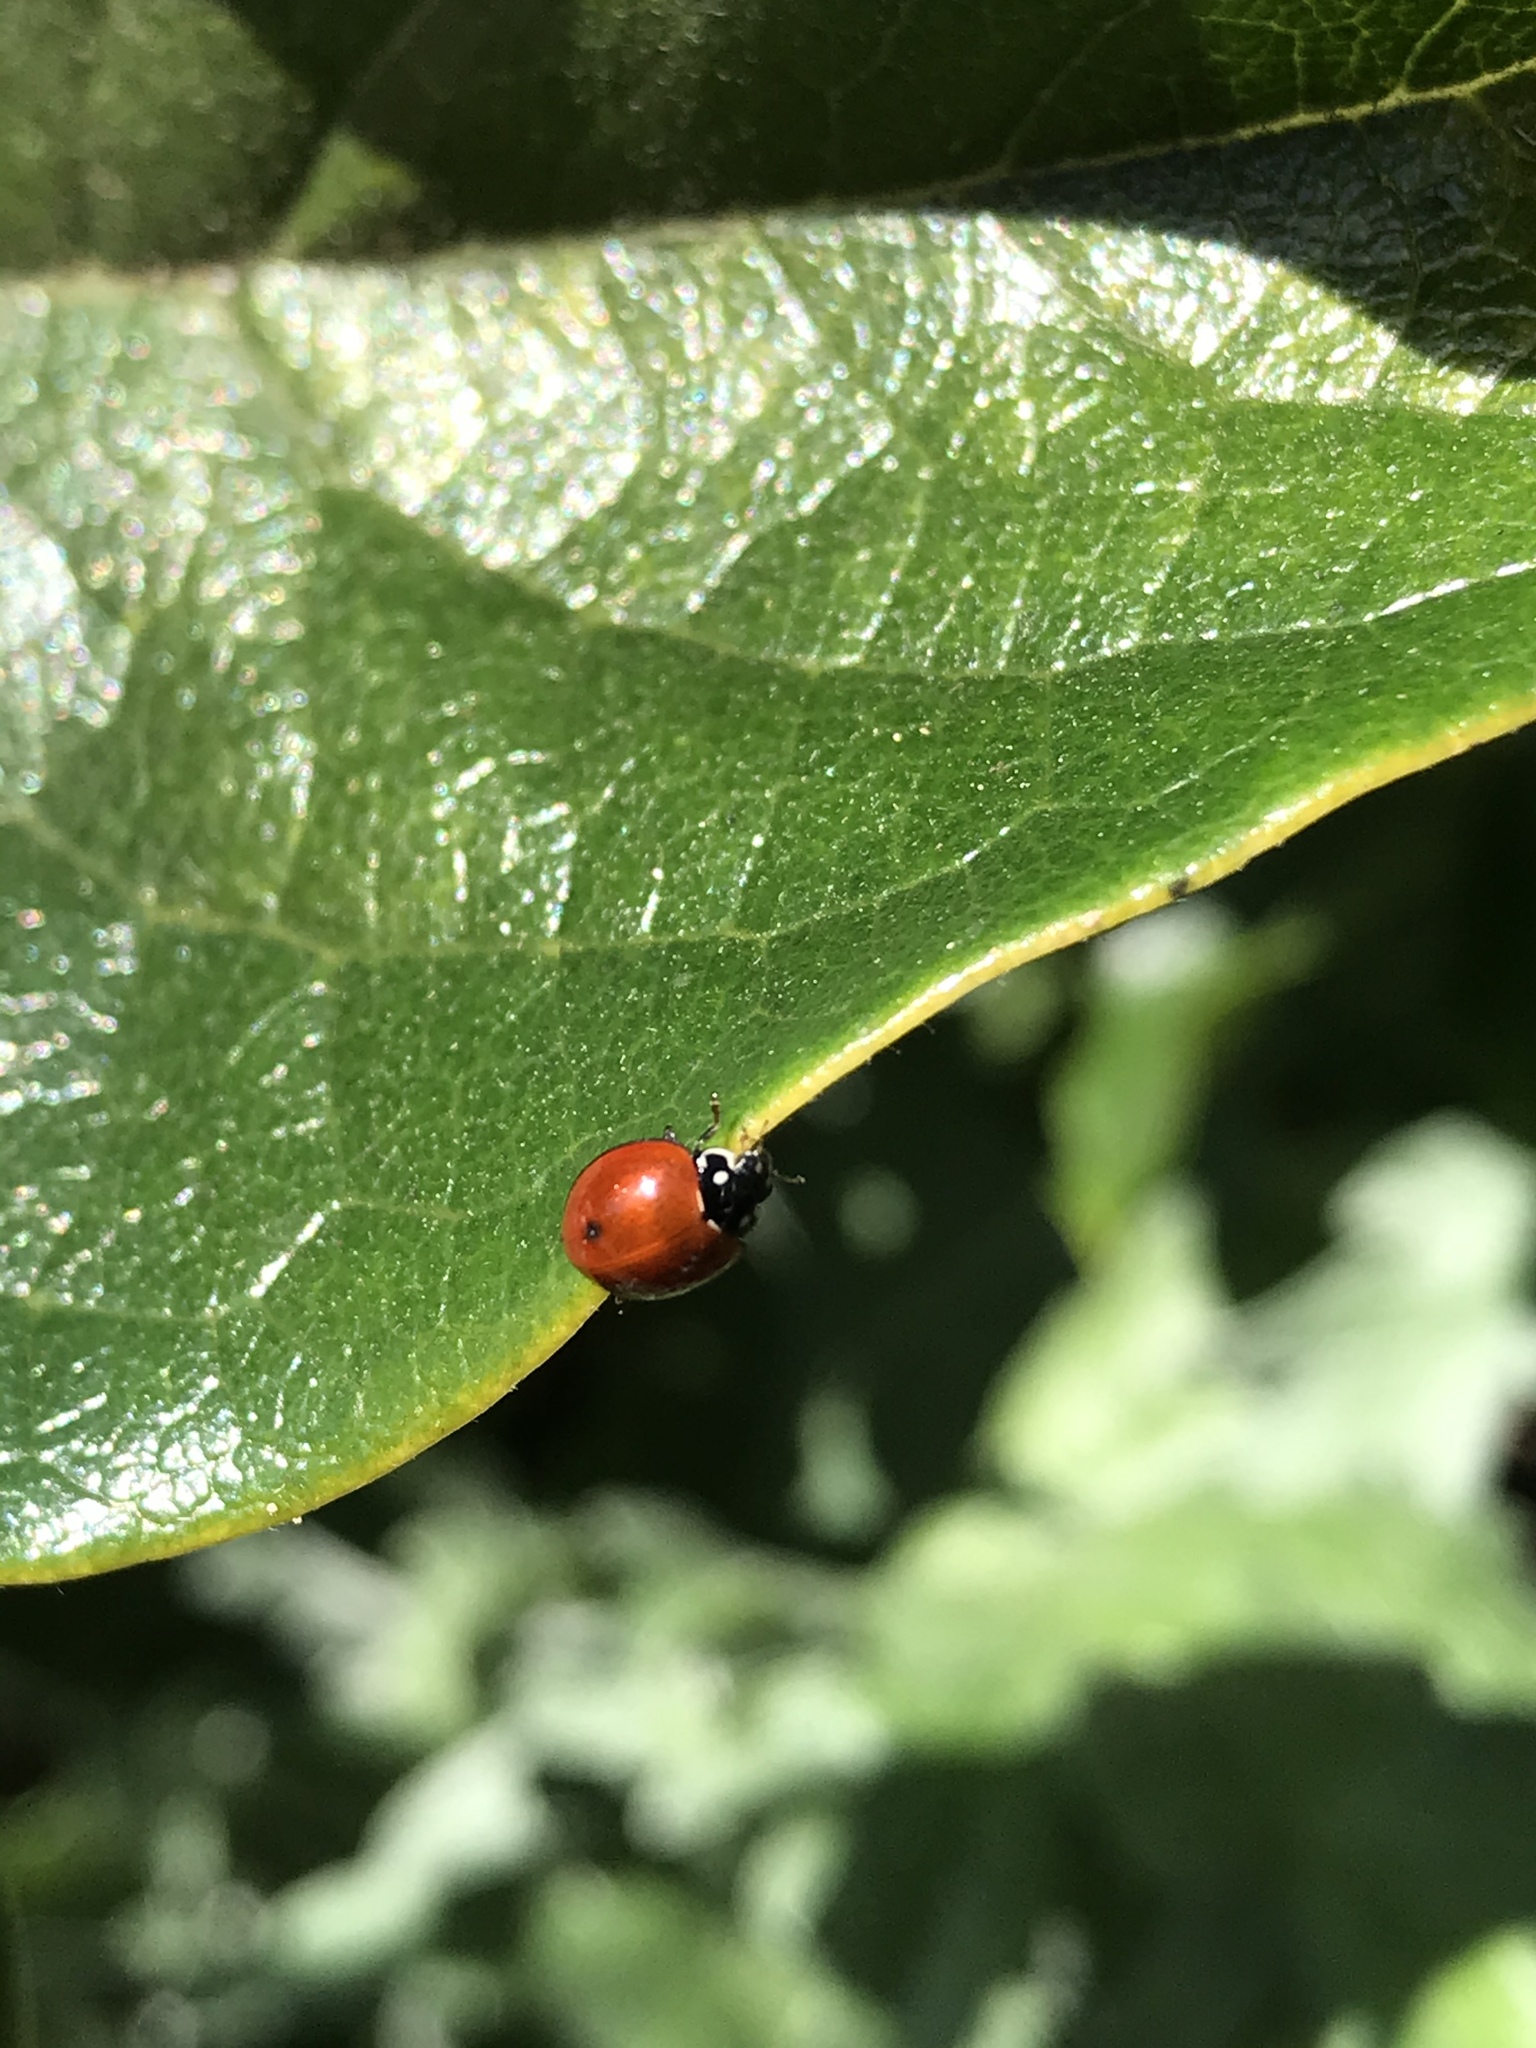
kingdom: Animalia
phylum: Arthropoda
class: Insecta
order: Coleoptera
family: Coccinellidae
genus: Cycloneda
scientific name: Cycloneda sanguinea
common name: Ladybird beetle
